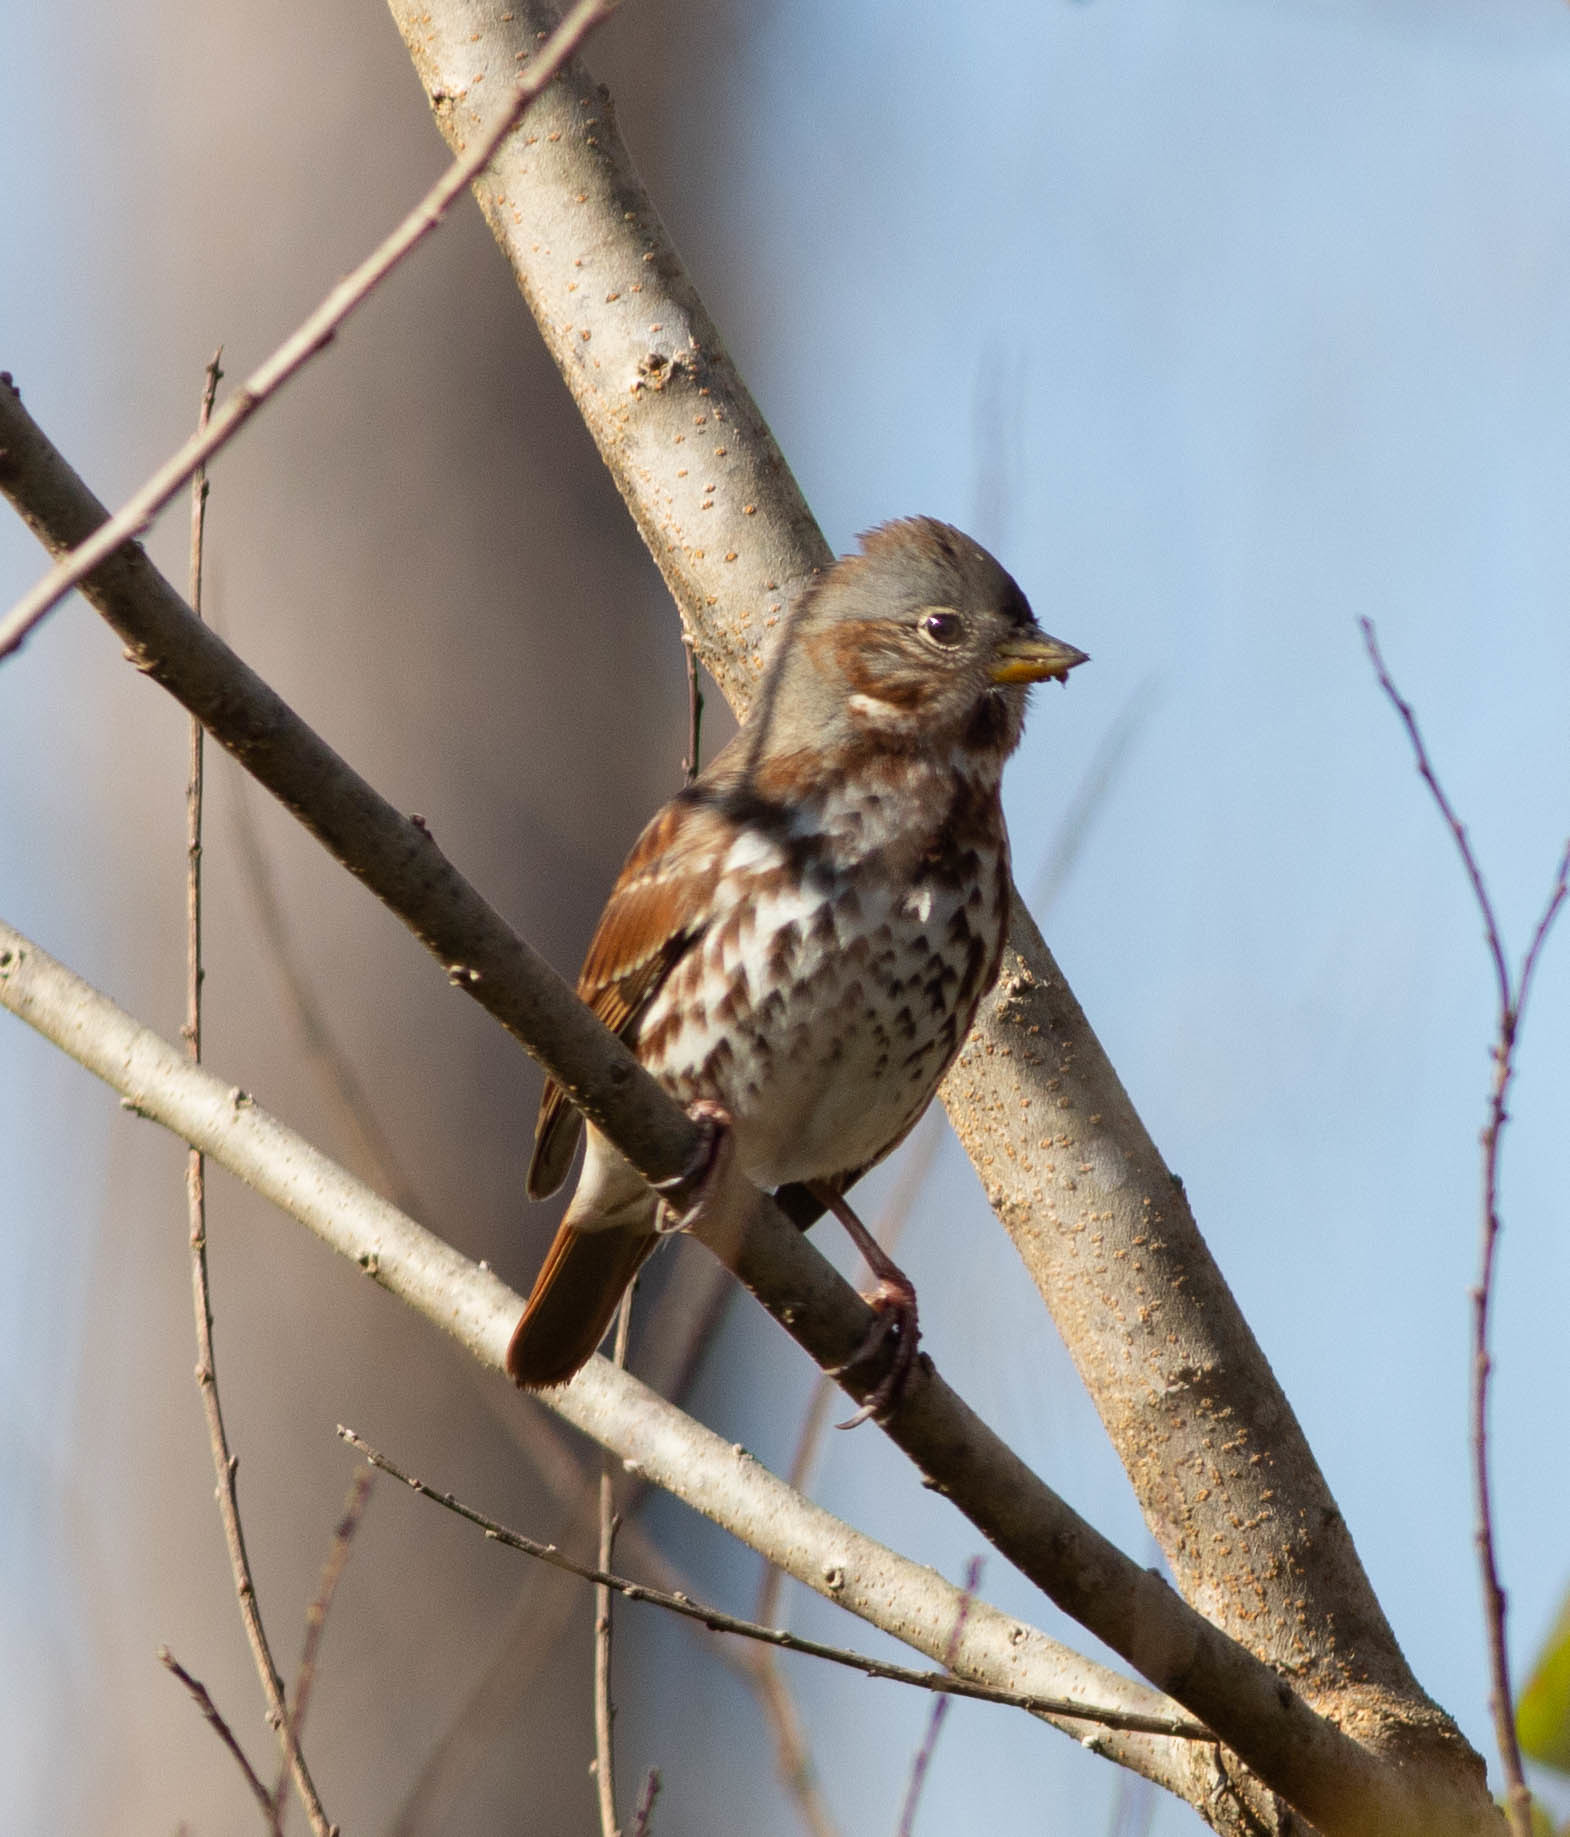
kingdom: Animalia
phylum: Chordata
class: Aves
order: Passeriformes
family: Passerellidae
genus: Passerella
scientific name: Passerella iliaca
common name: Fox sparrow
